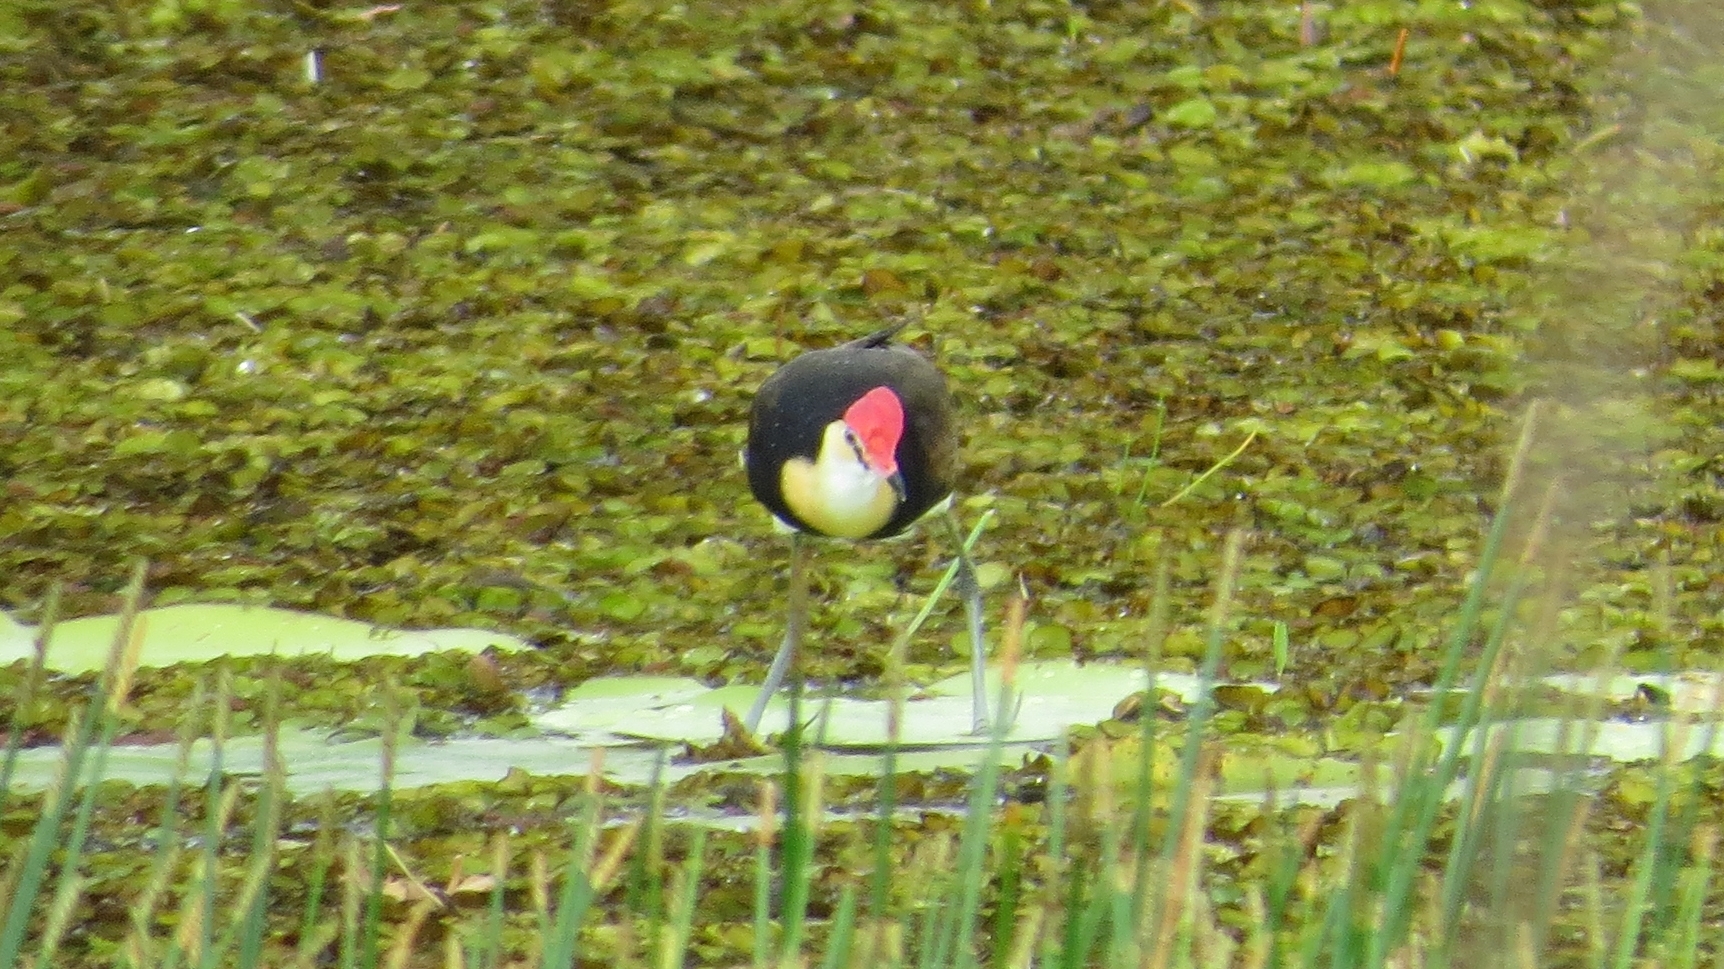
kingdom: Animalia
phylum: Chordata
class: Aves
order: Charadriiformes
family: Jacanidae
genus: Irediparra
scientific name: Irediparra gallinacea
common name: Comb-crested jacana
